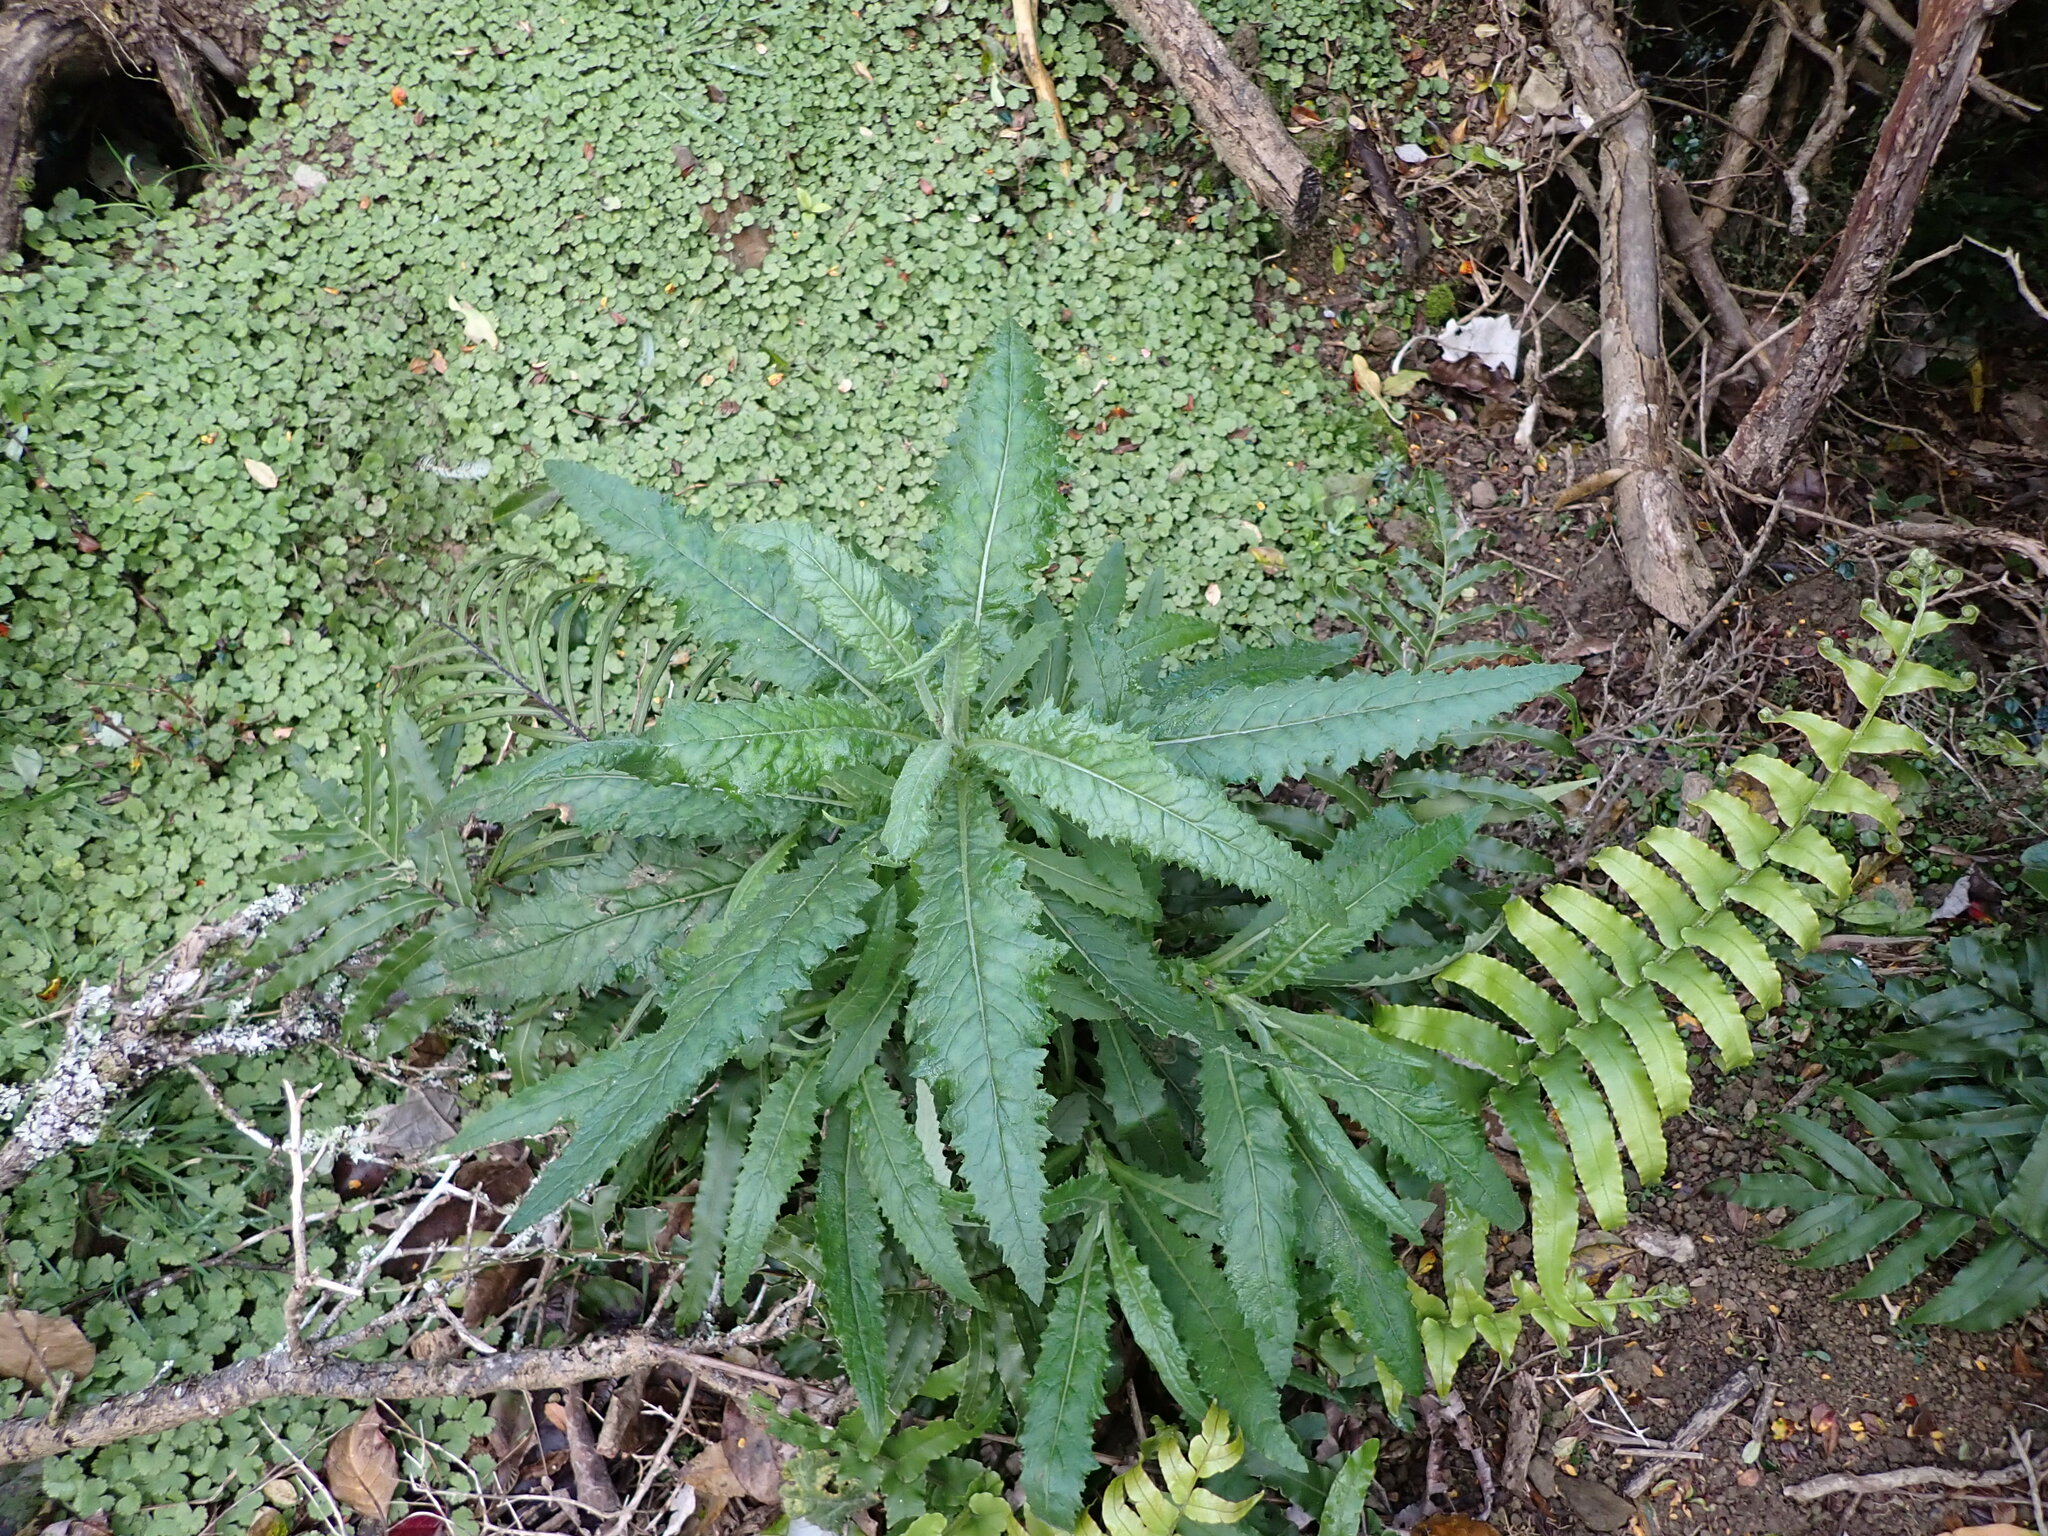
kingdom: Plantae
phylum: Tracheophyta
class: Magnoliopsida
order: Asterales
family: Asteraceae
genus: Senecio
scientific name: Senecio minimus
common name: Toothed fireweed
